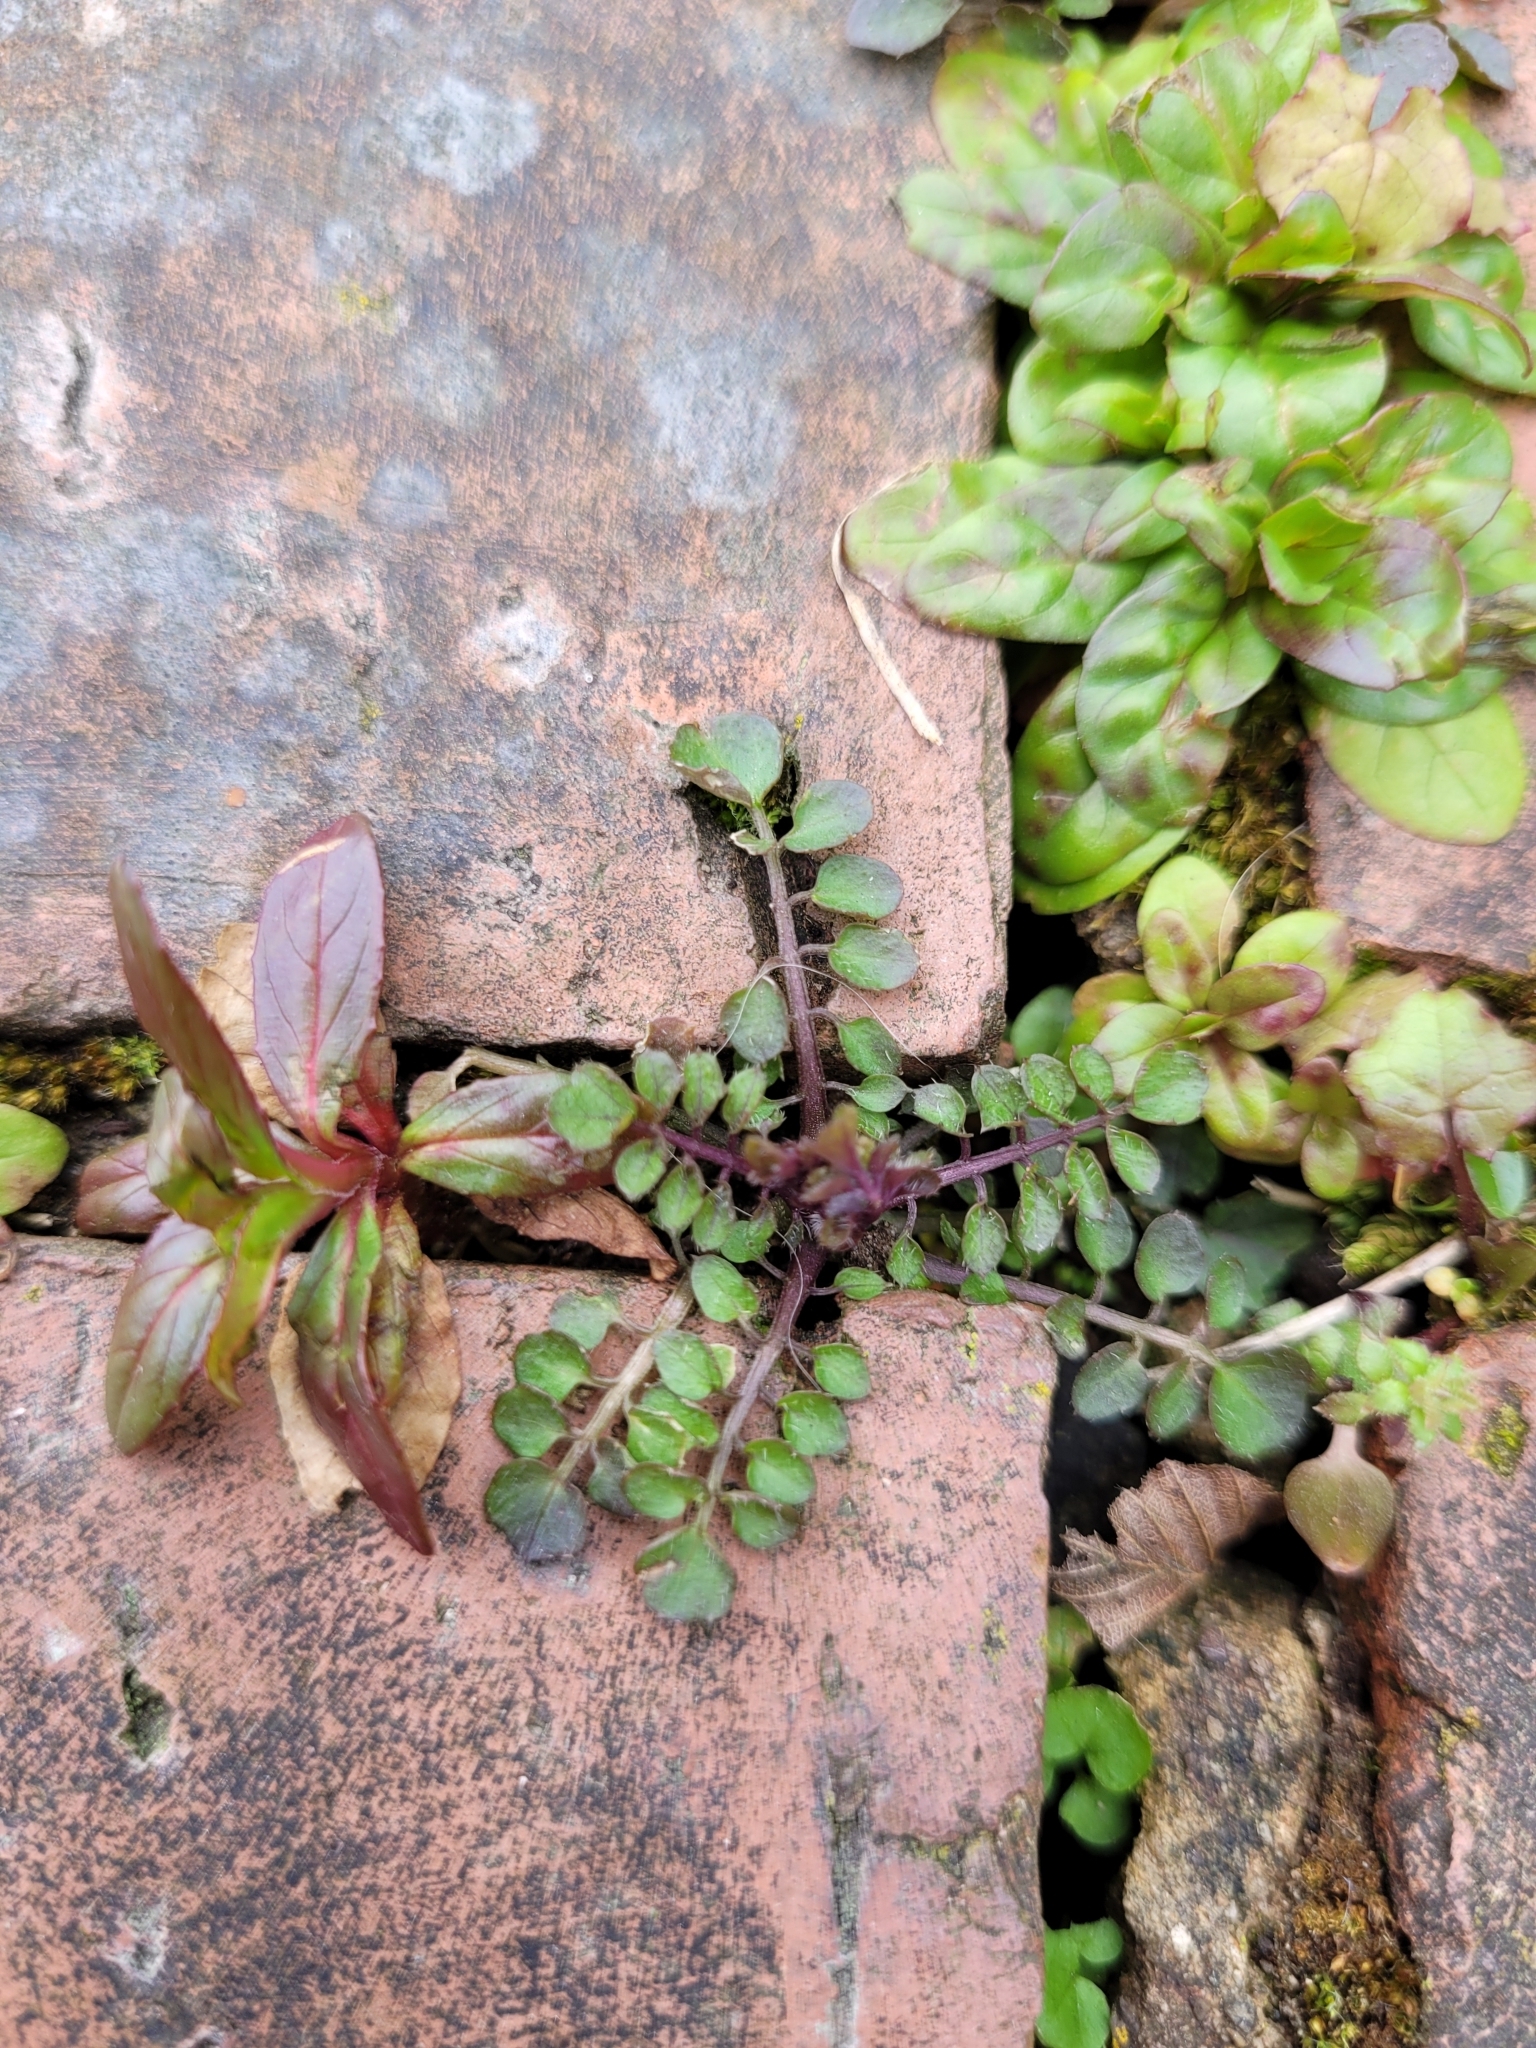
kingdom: Plantae
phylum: Tracheophyta
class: Magnoliopsida
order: Brassicales
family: Brassicaceae
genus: Cardamine
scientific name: Cardamine hirsuta
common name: Hairy bittercress
